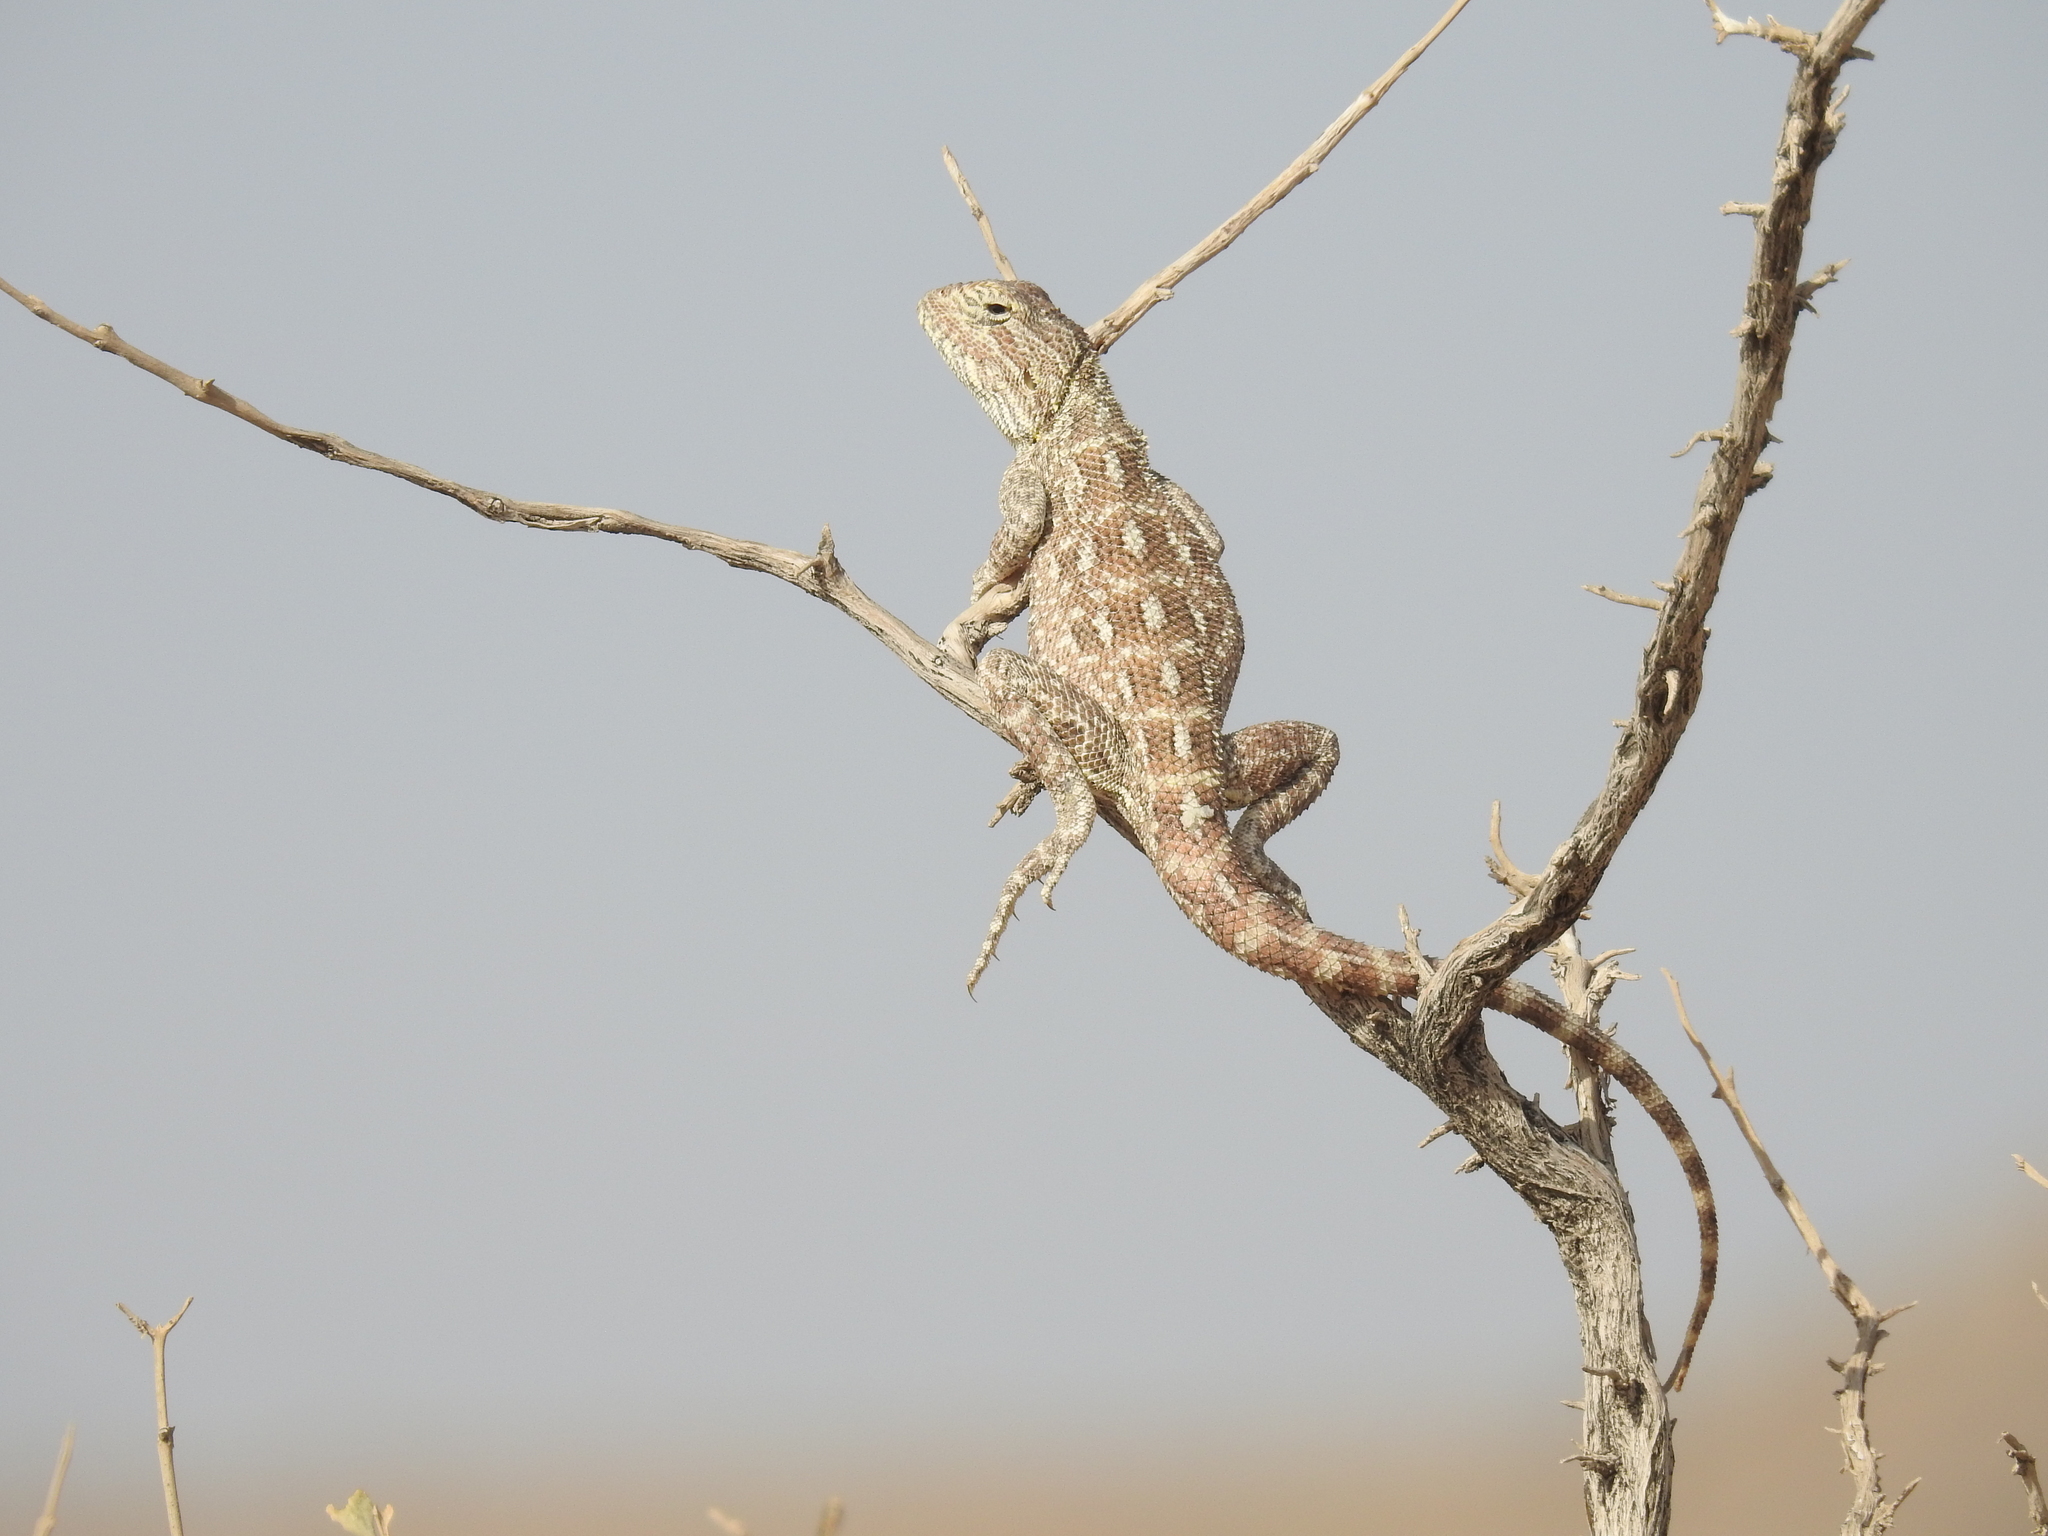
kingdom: Animalia
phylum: Chordata
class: Squamata
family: Agamidae
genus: Trapelus
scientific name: Trapelus agilis
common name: Brilliant ground agama
